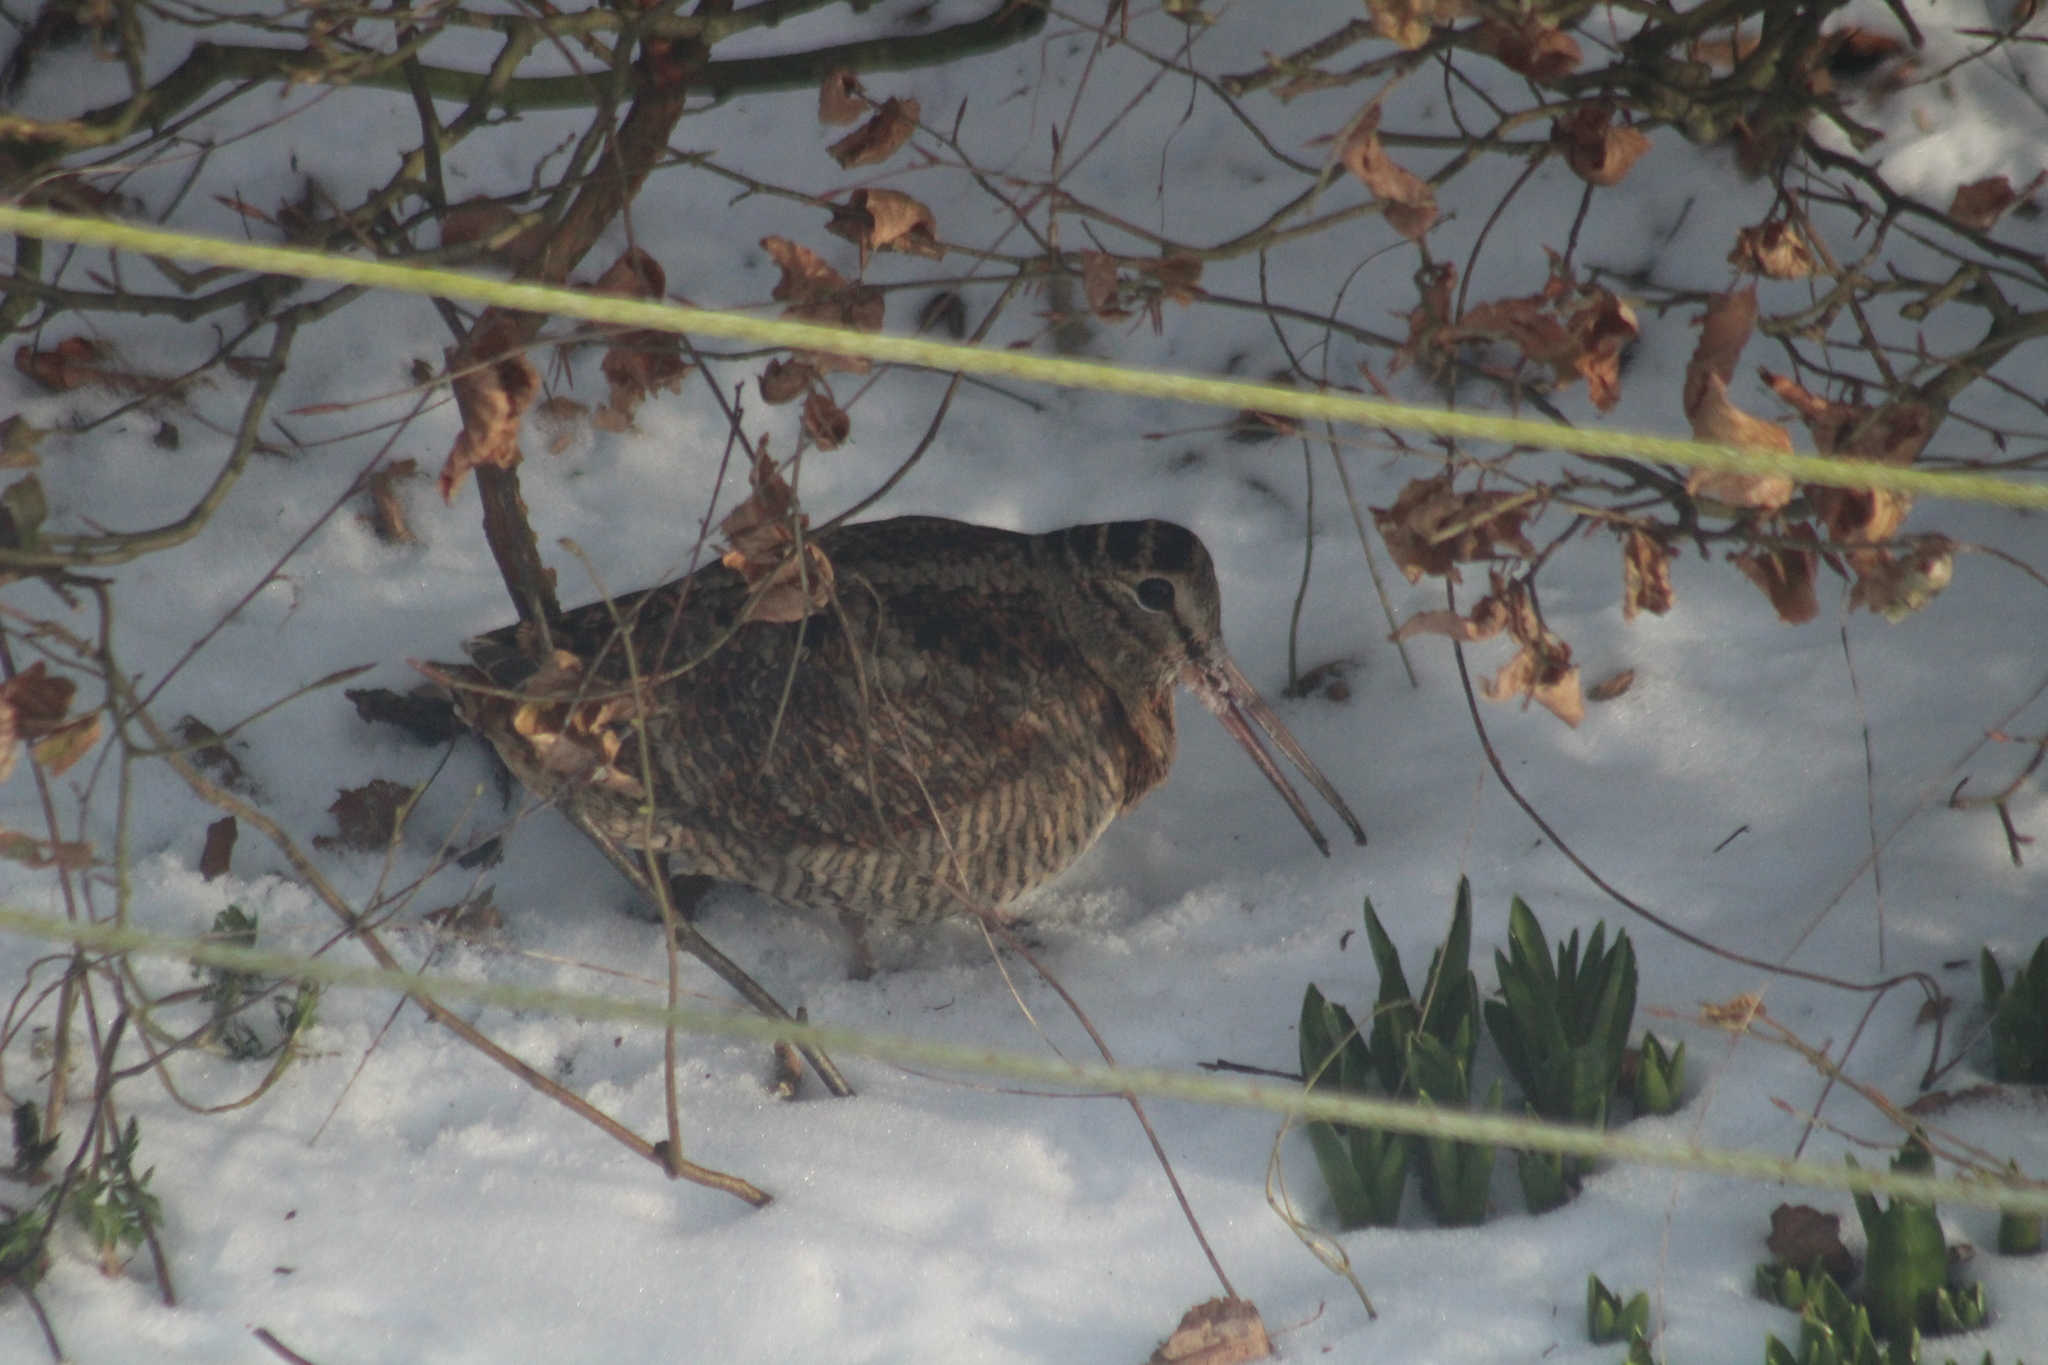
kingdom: Animalia
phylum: Chordata
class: Aves
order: Charadriiformes
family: Scolopacidae
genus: Scolopax
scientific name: Scolopax rusticola
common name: Eurasian woodcock
